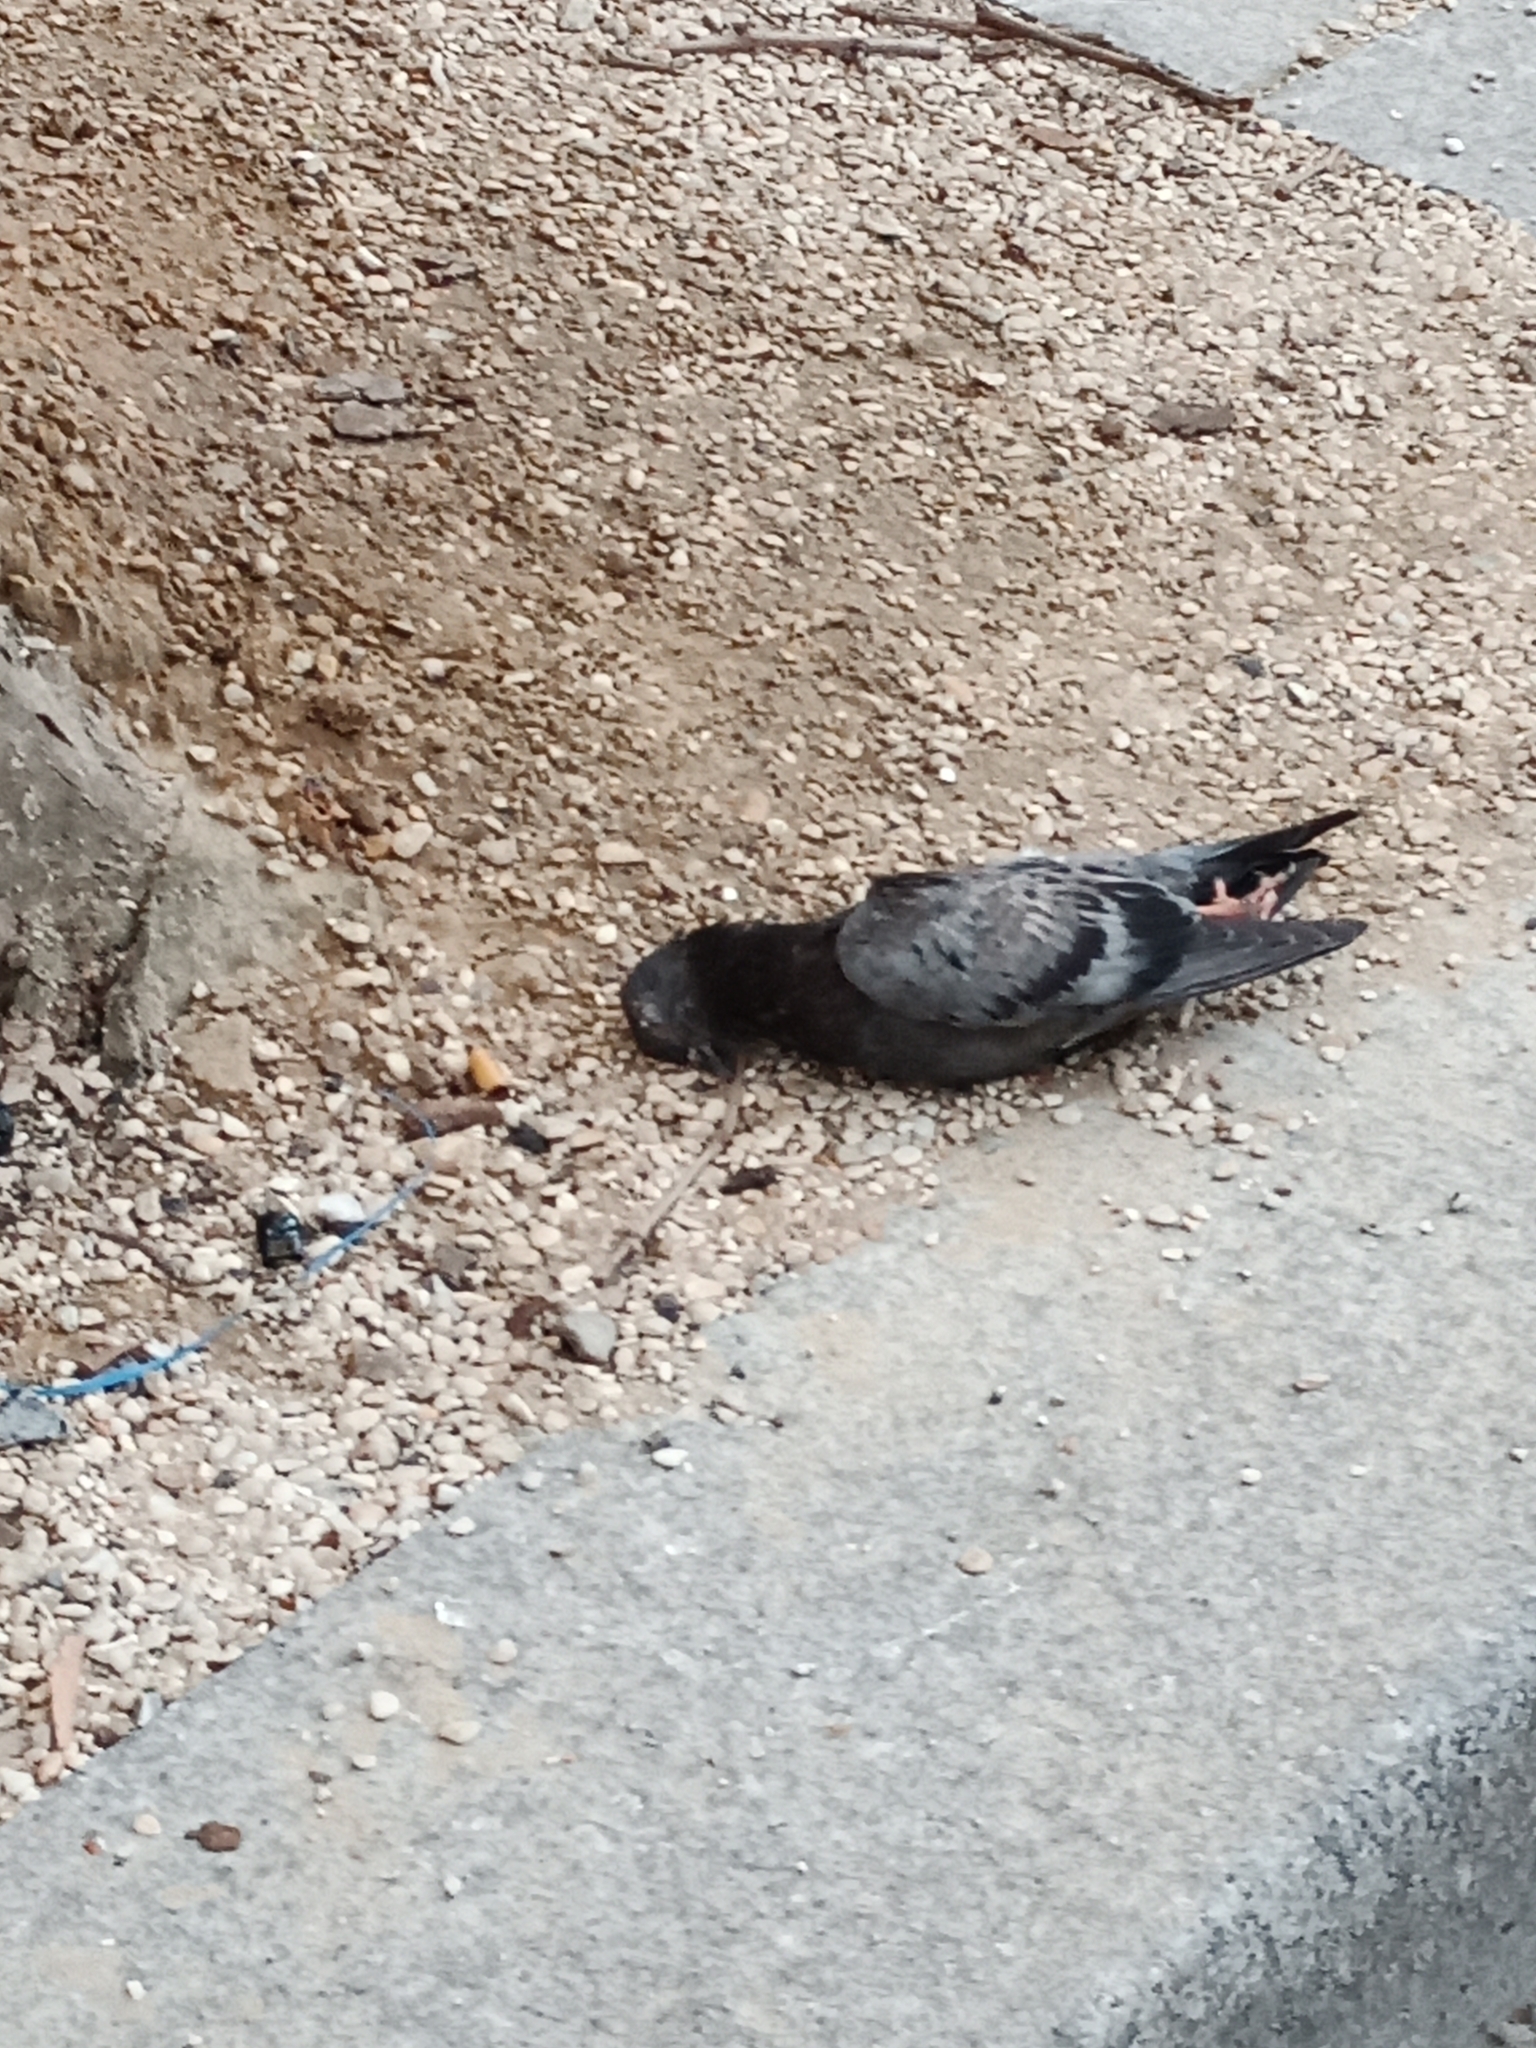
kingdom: Animalia
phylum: Chordata
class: Aves
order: Columbiformes
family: Columbidae
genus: Columba
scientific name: Columba livia
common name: Rock pigeon
